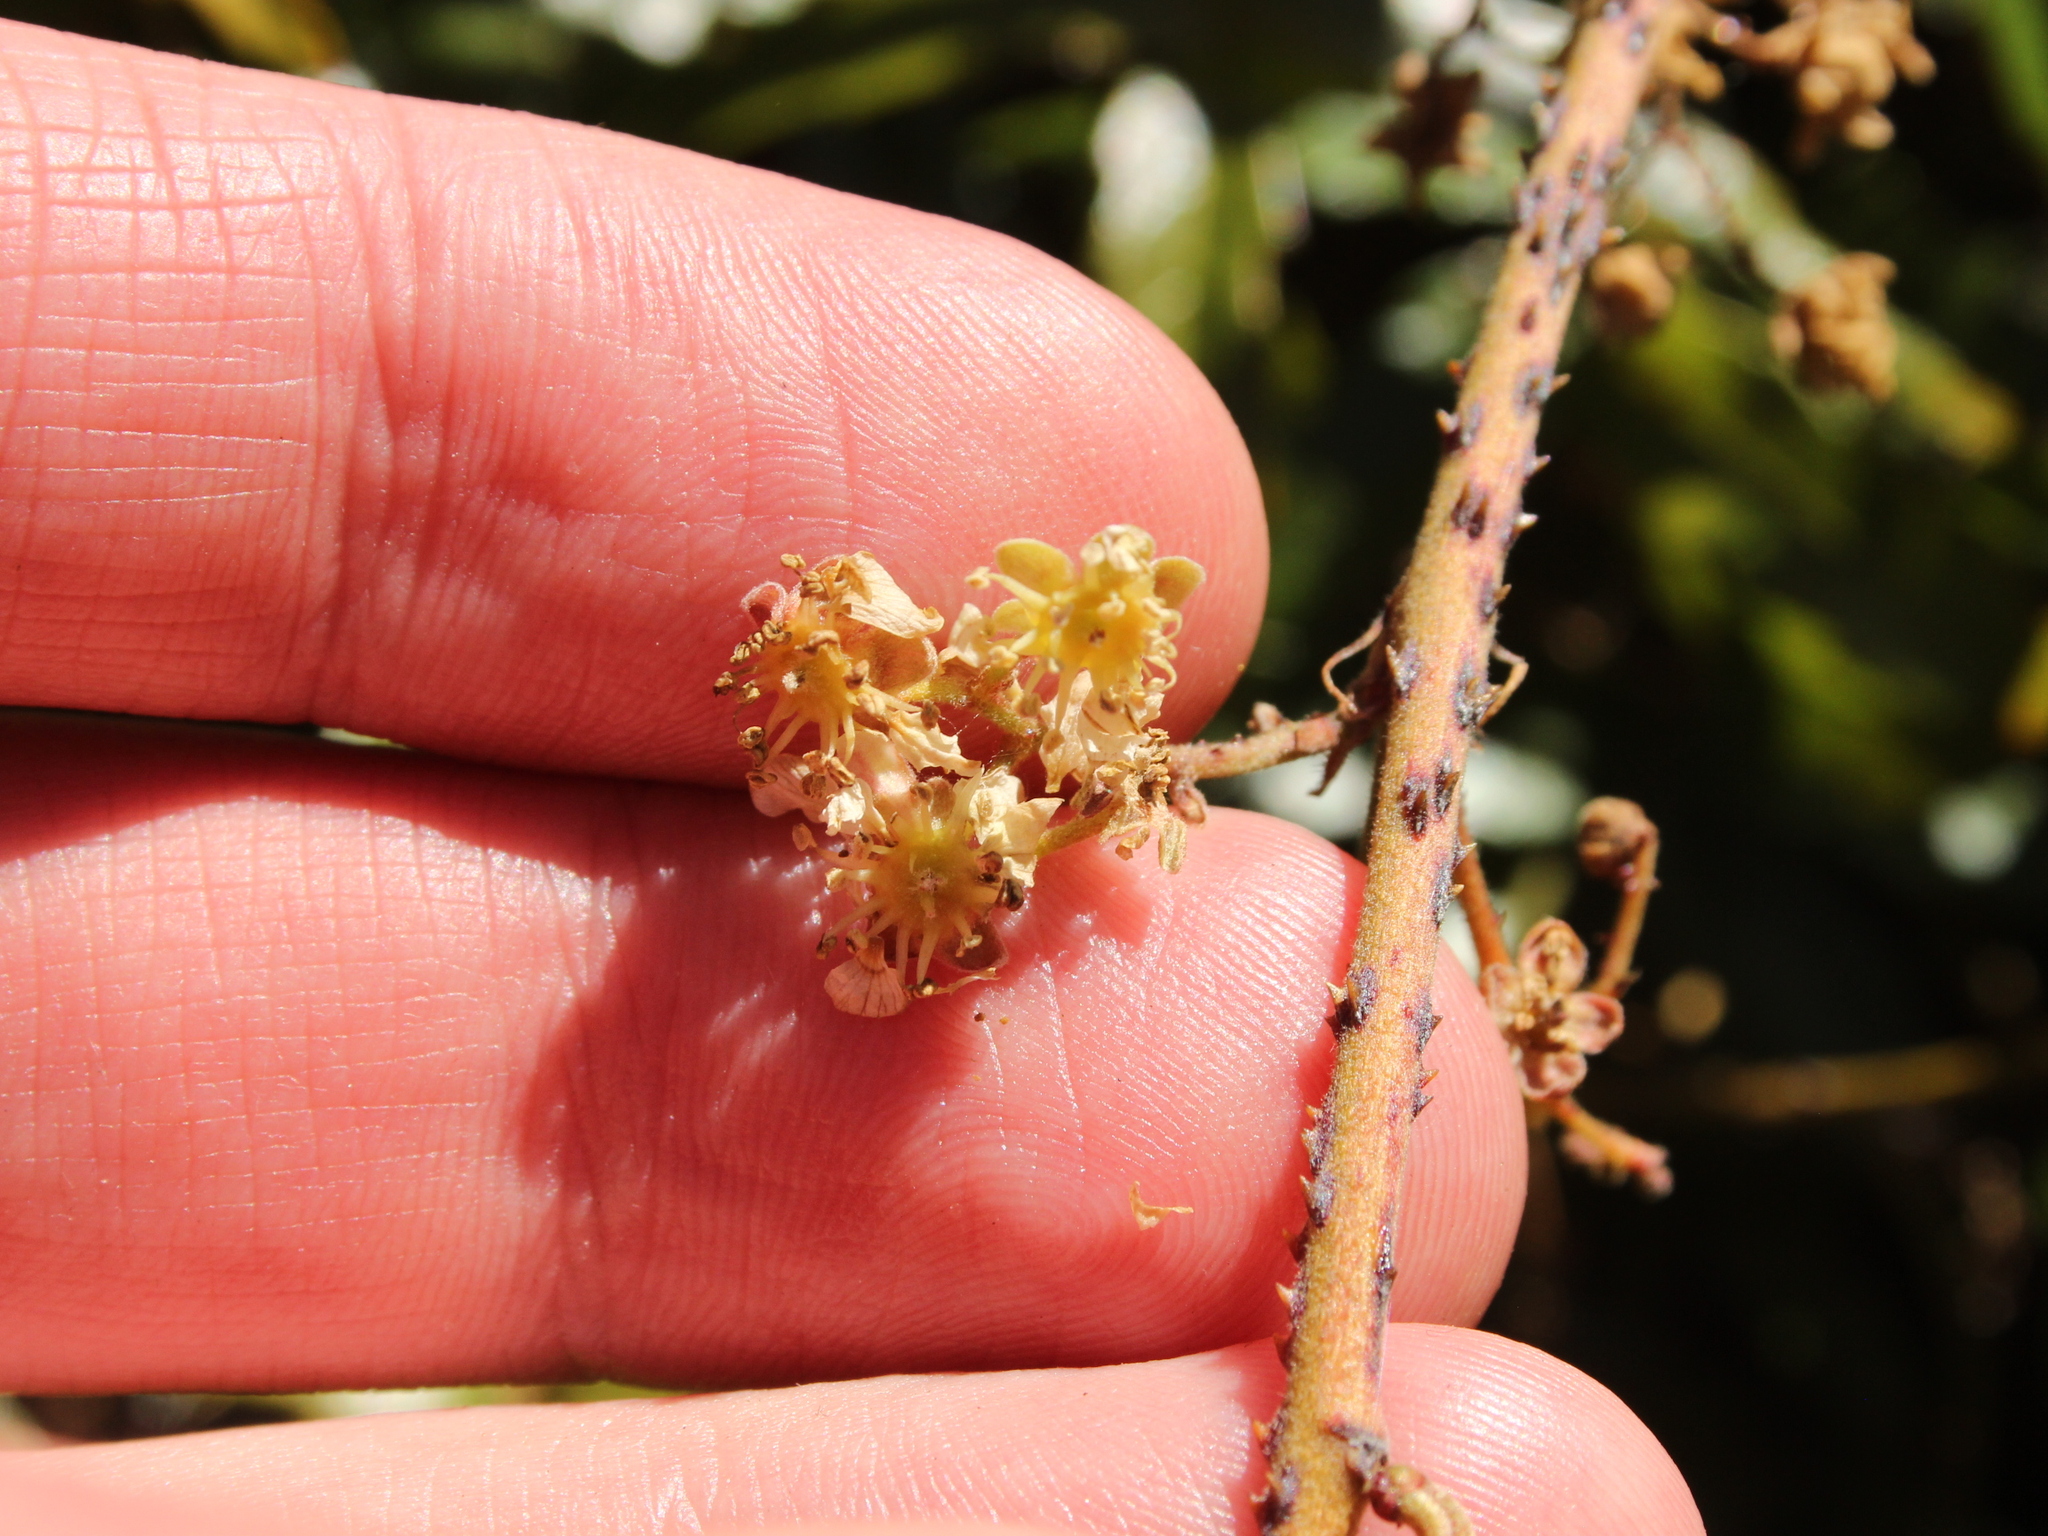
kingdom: Plantae
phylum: Tracheophyta
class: Magnoliopsida
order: Rosales
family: Rosaceae
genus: Rubus
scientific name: Rubus schmidelioides
